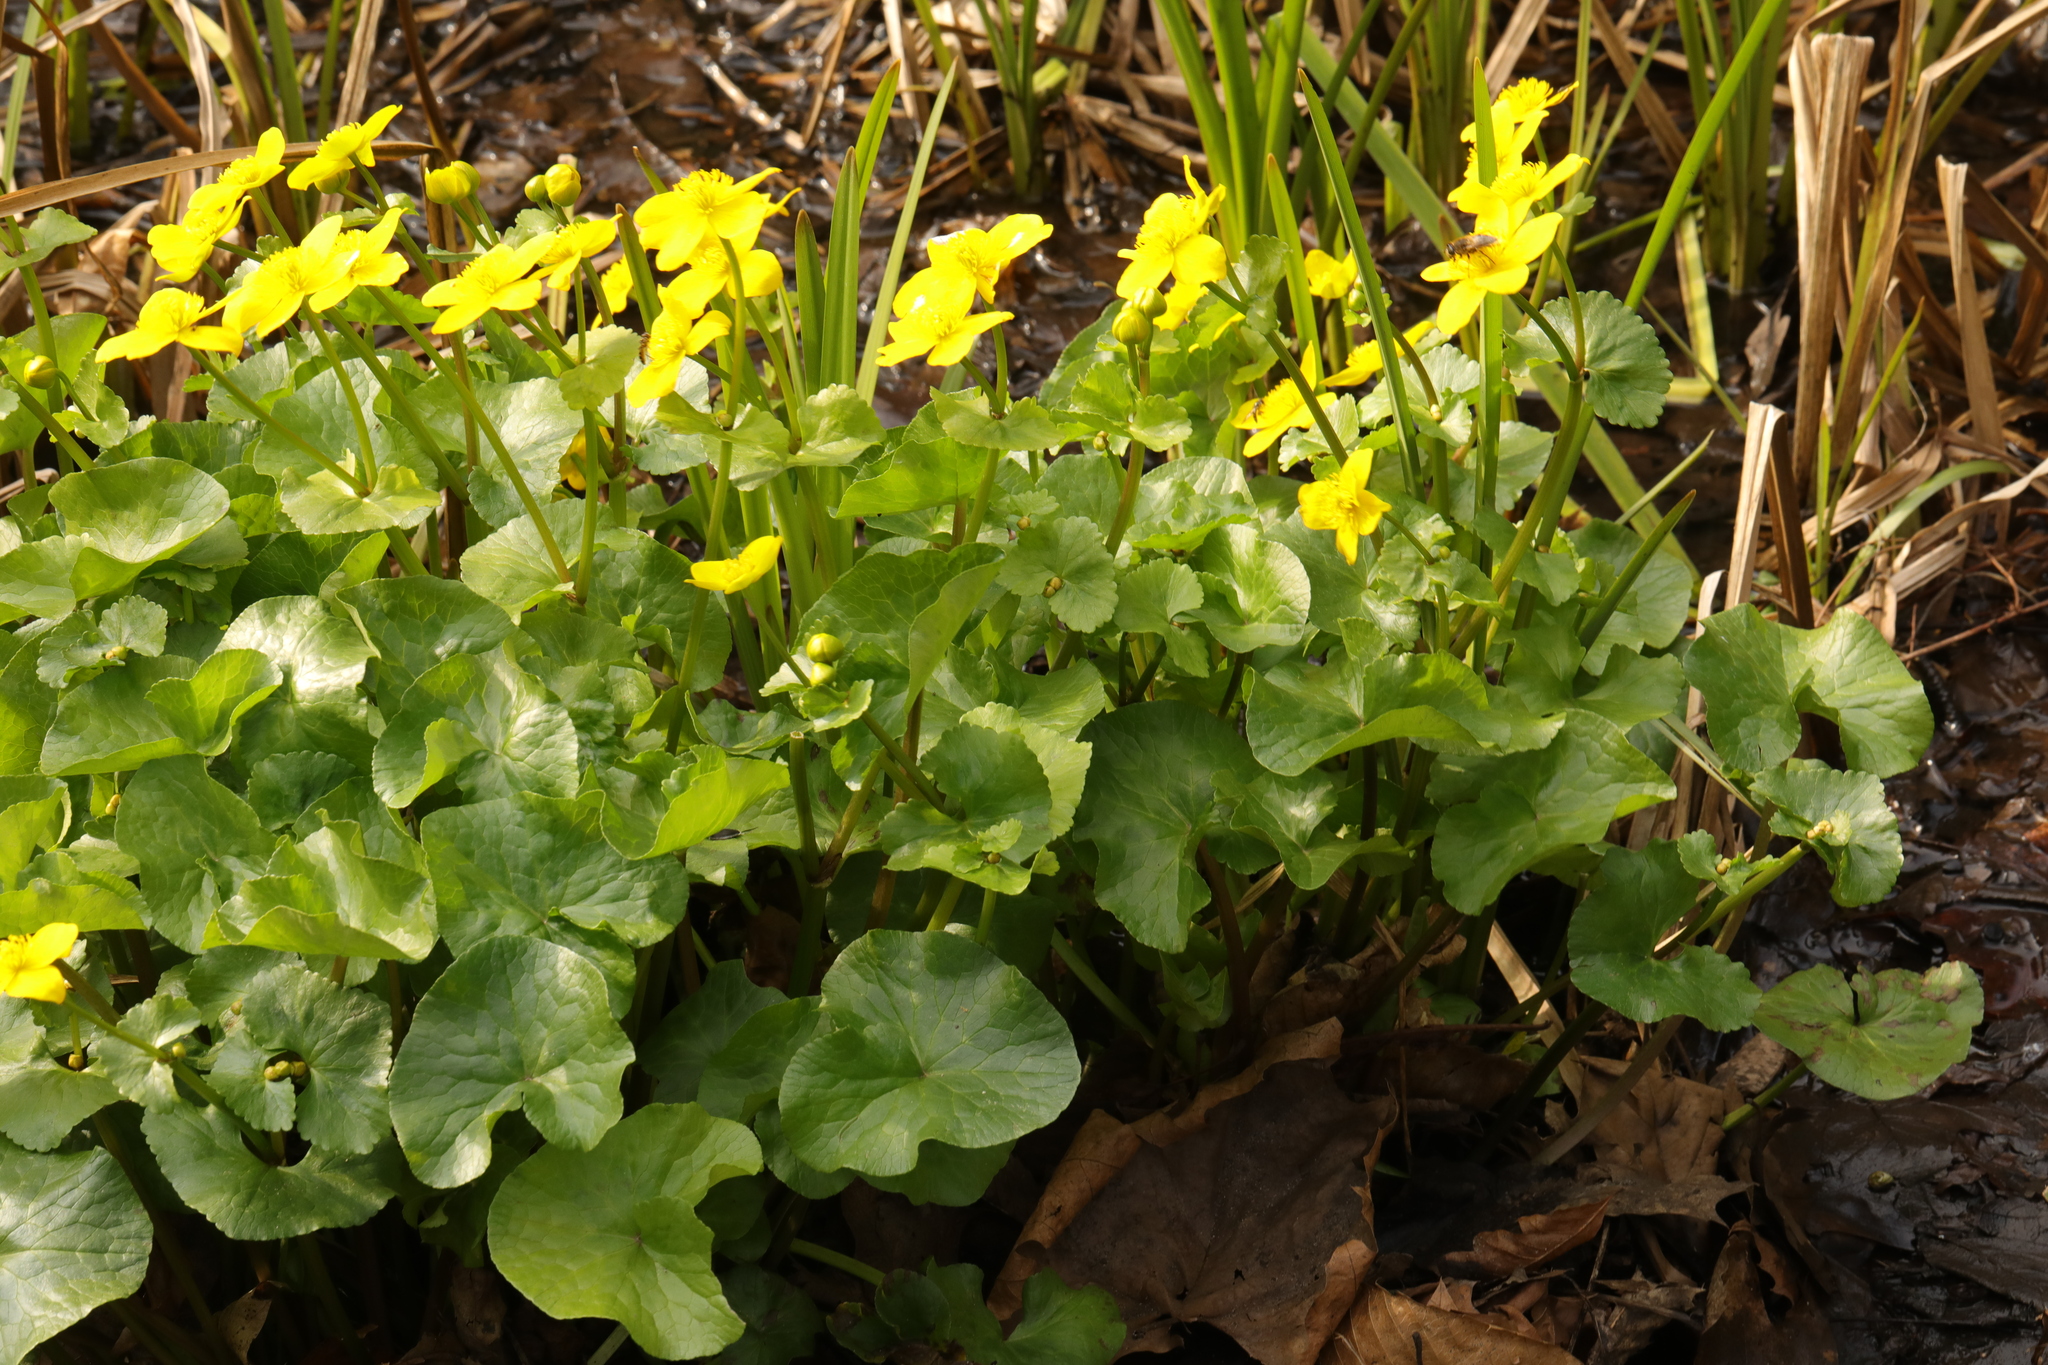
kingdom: Plantae
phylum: Tracheophyta
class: Magnoliopsida
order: Ranunculales
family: Ranunculaceae
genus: Caltha
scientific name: Caltha palustris
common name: Marsh marigold
